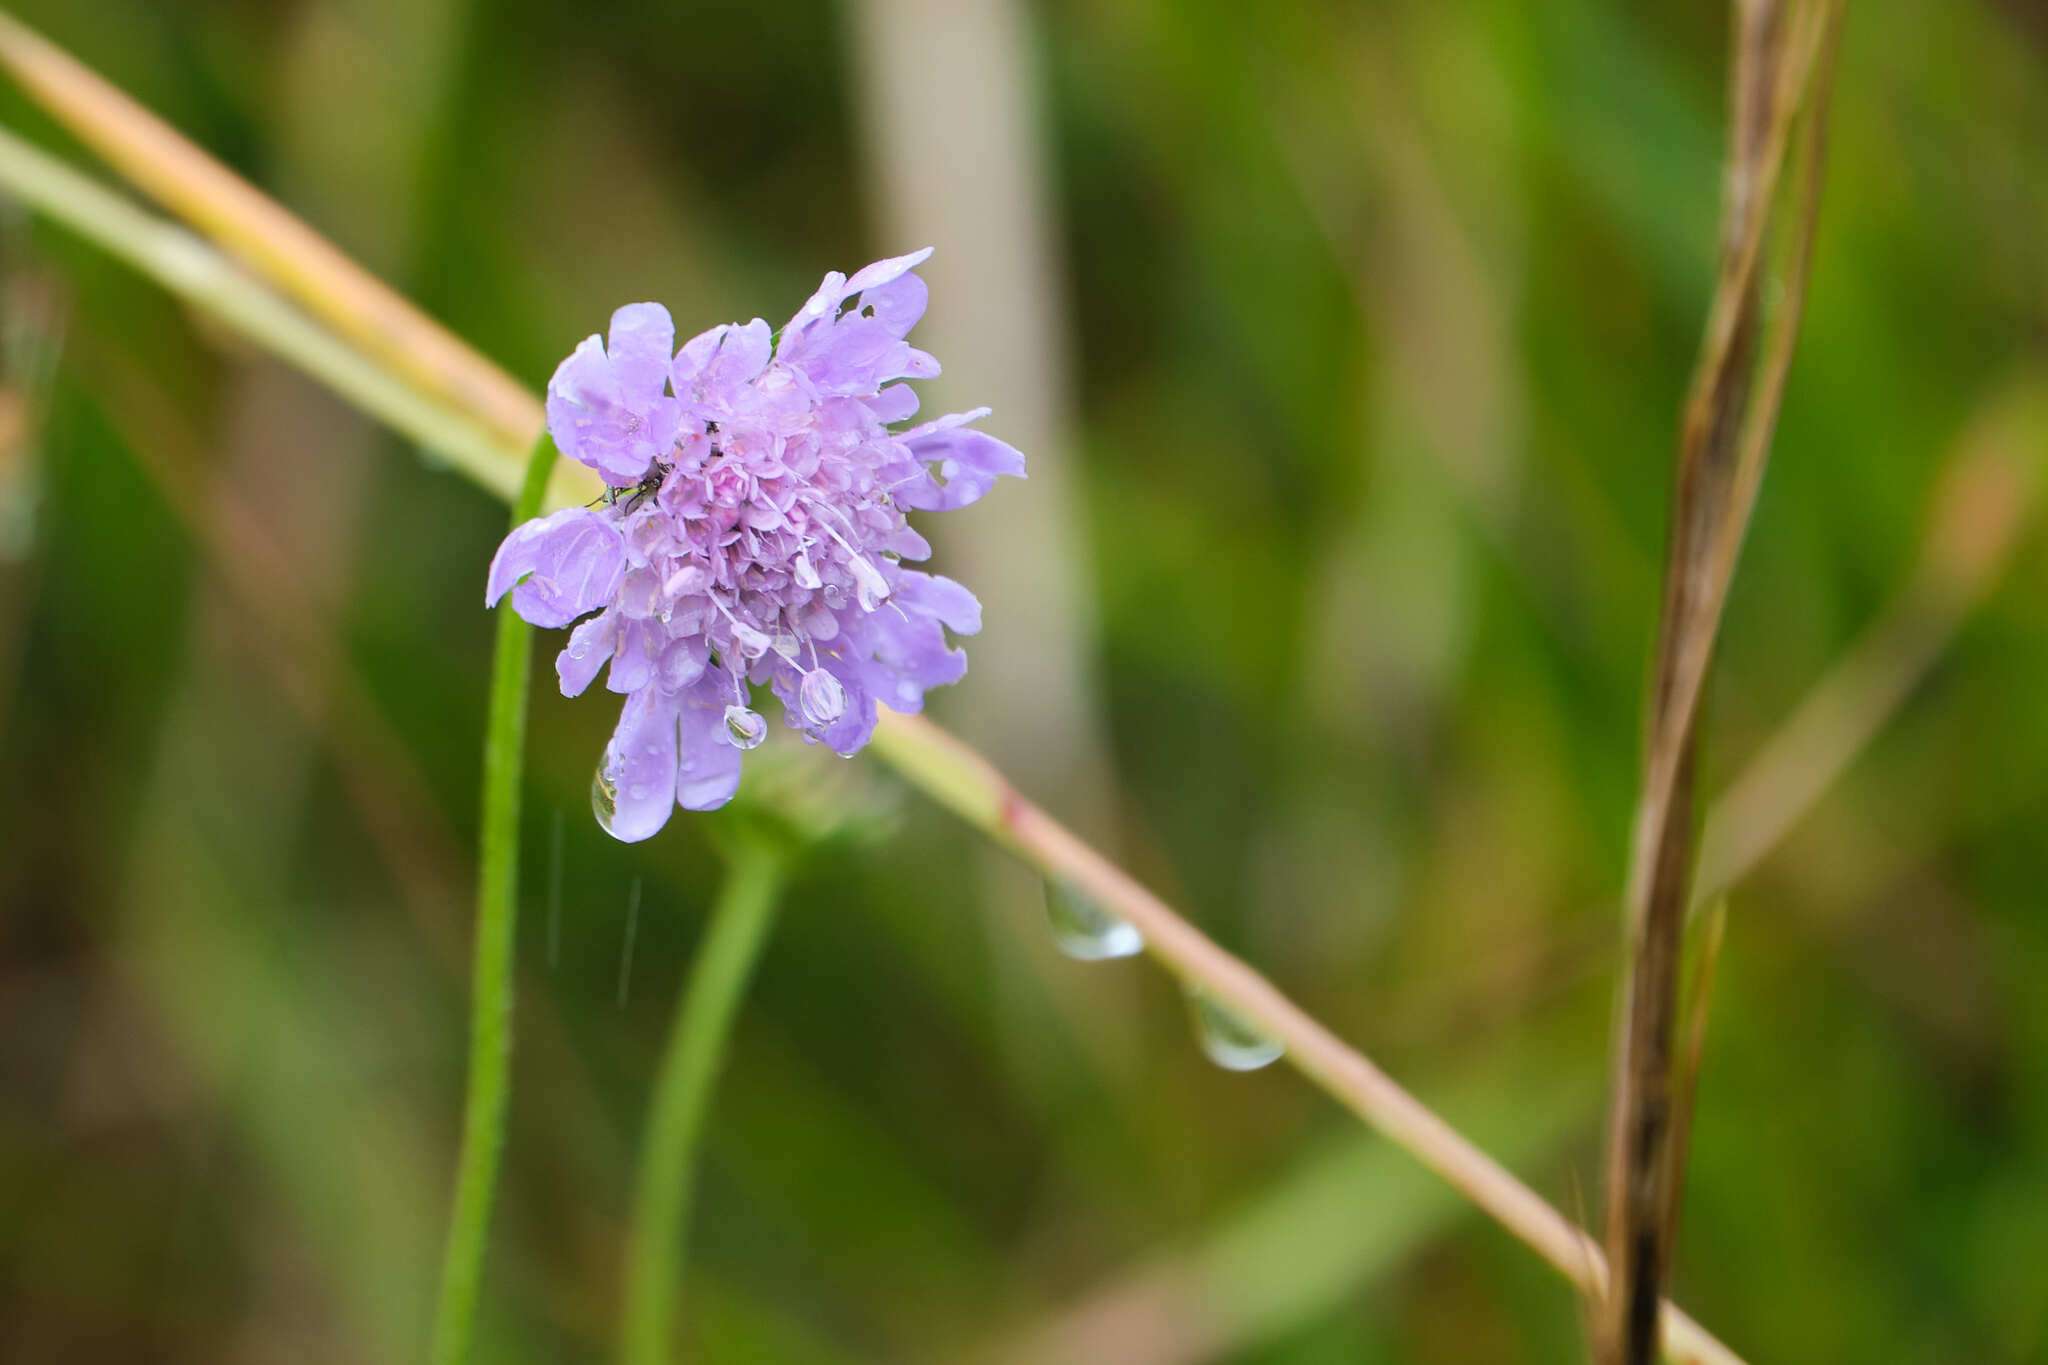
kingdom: Plantae
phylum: Tracheophyta
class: Magnoliopsida
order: Dipsacales
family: Caprifoliaceae
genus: Scabiosa
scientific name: Scabiosa columbaria
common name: Small scabious
